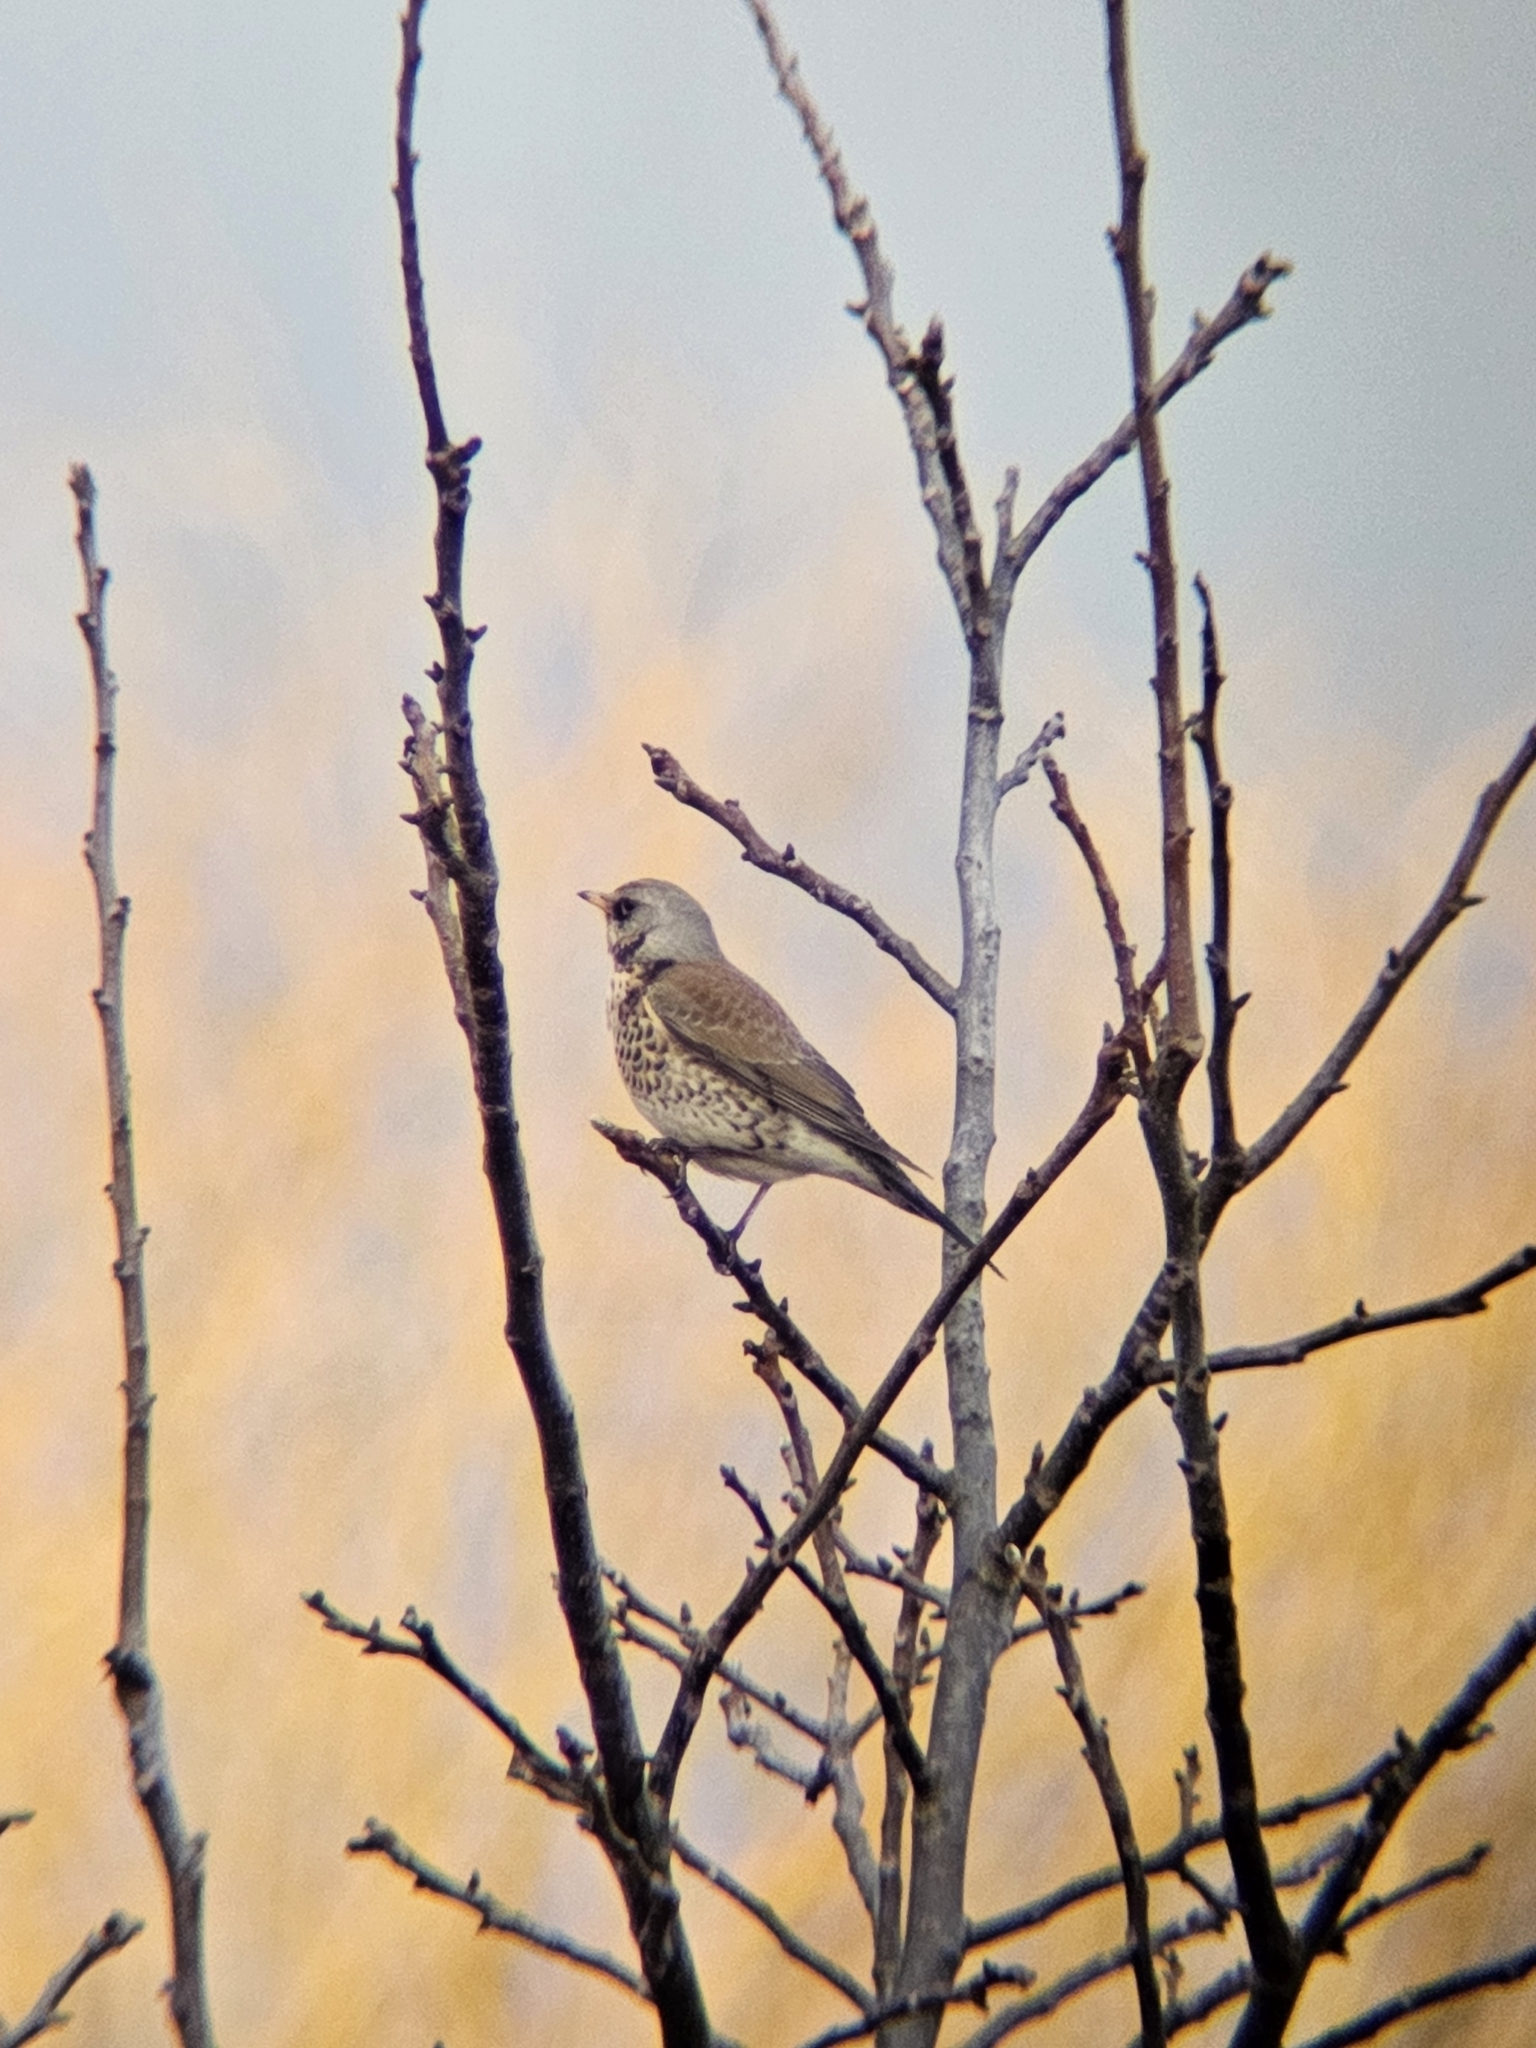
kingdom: Animalia
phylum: Chordata
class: Aves
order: Passeriformes
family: Turdidae
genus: Turdus
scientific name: Turdus pilaris
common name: Fieldfare
